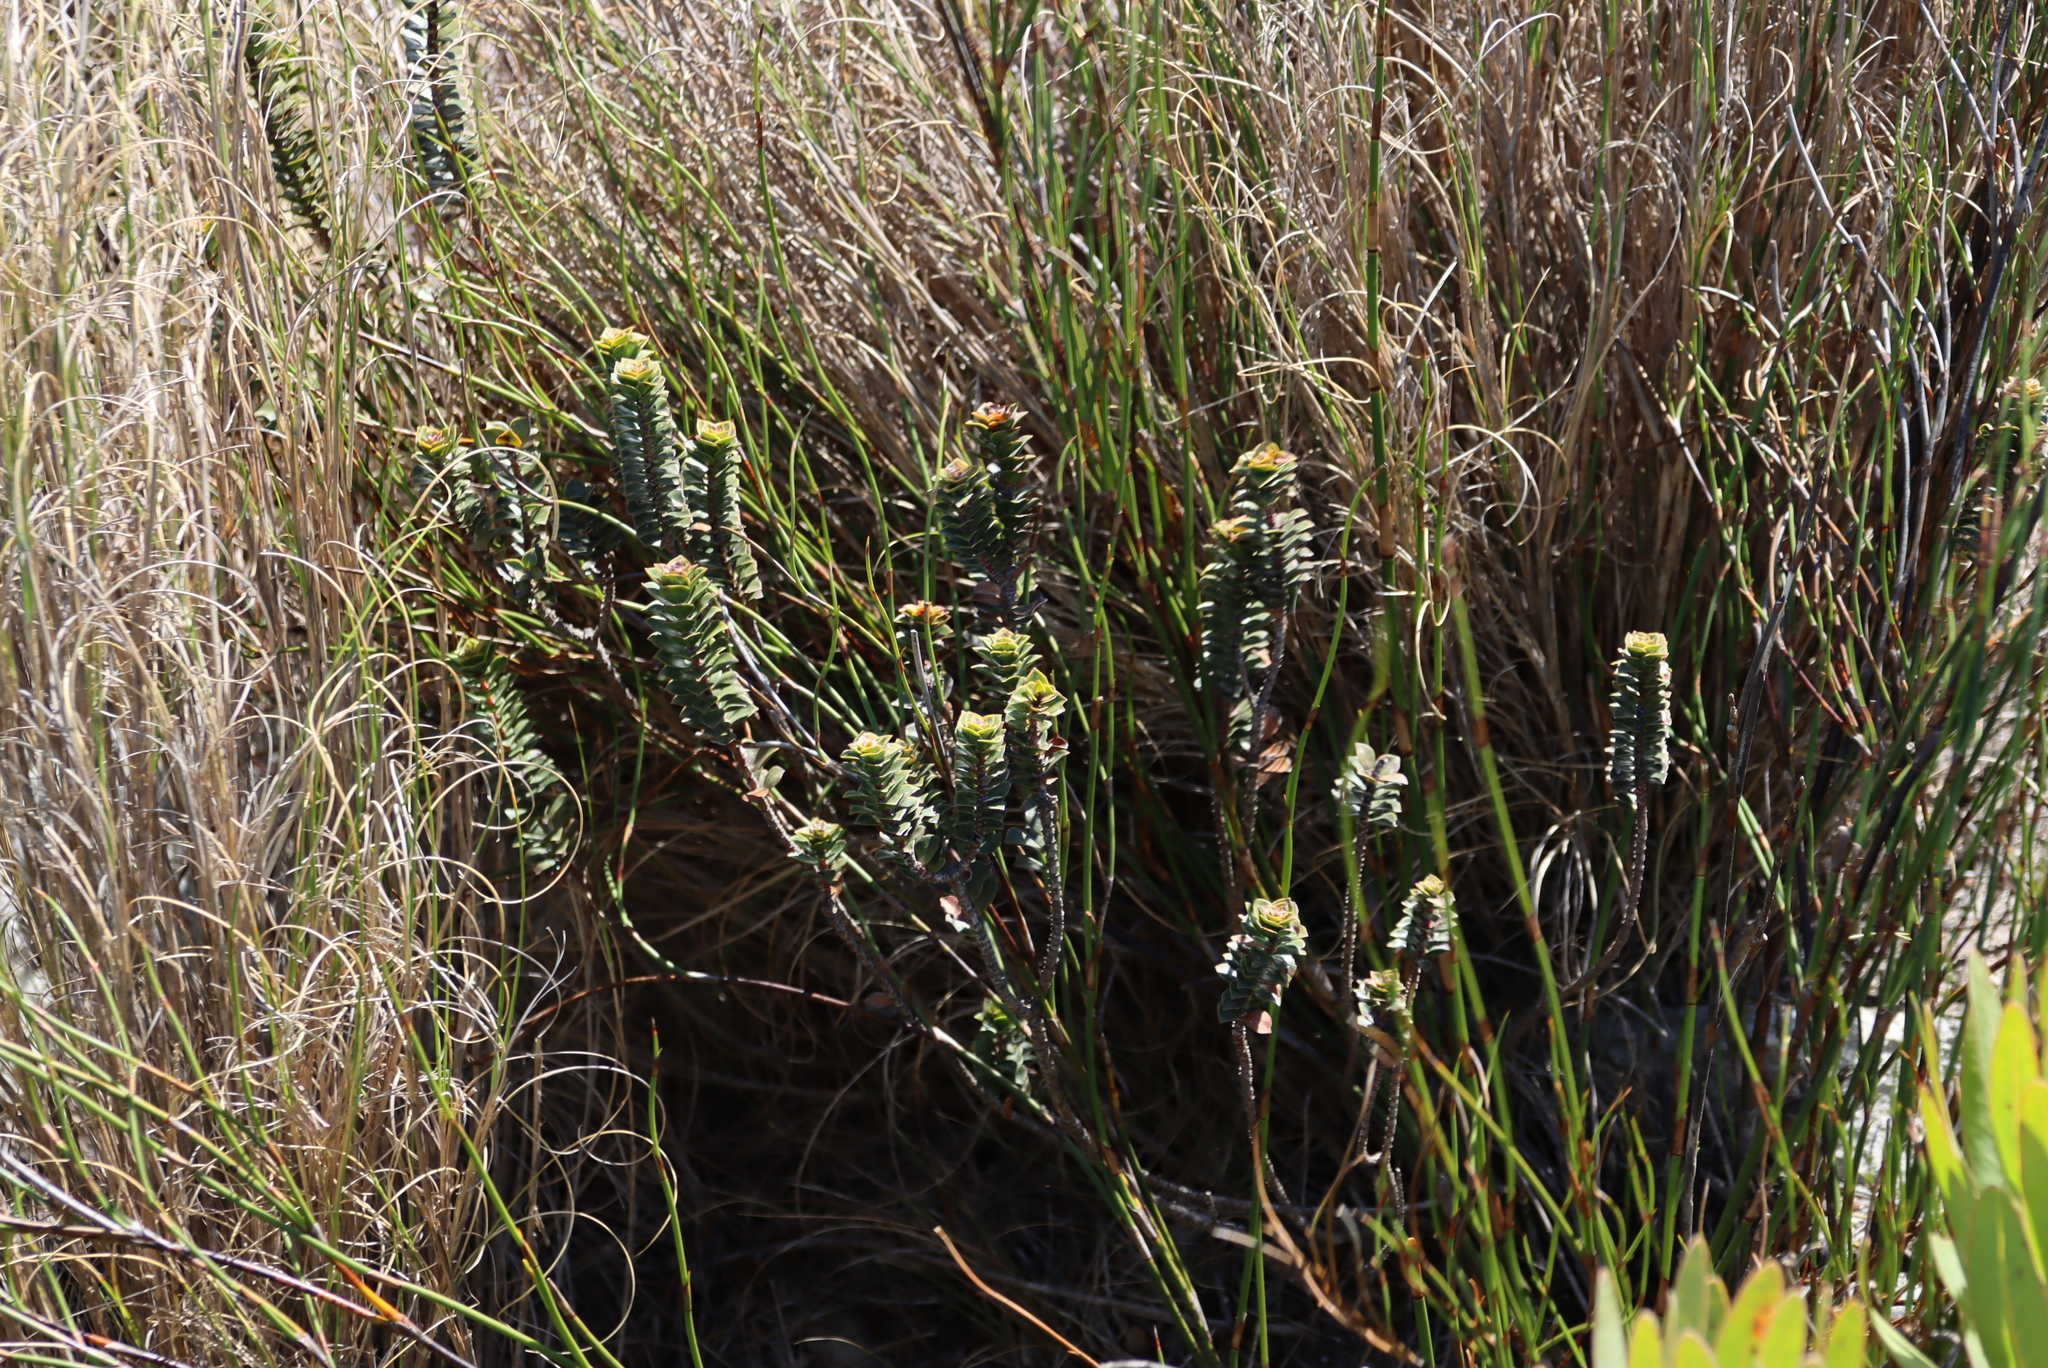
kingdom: Plantae
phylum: Tracheophyta
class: Magnoliopsida
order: Myrtales
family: Penaeaceae
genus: Saltera
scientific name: Saltera sarcocolla
